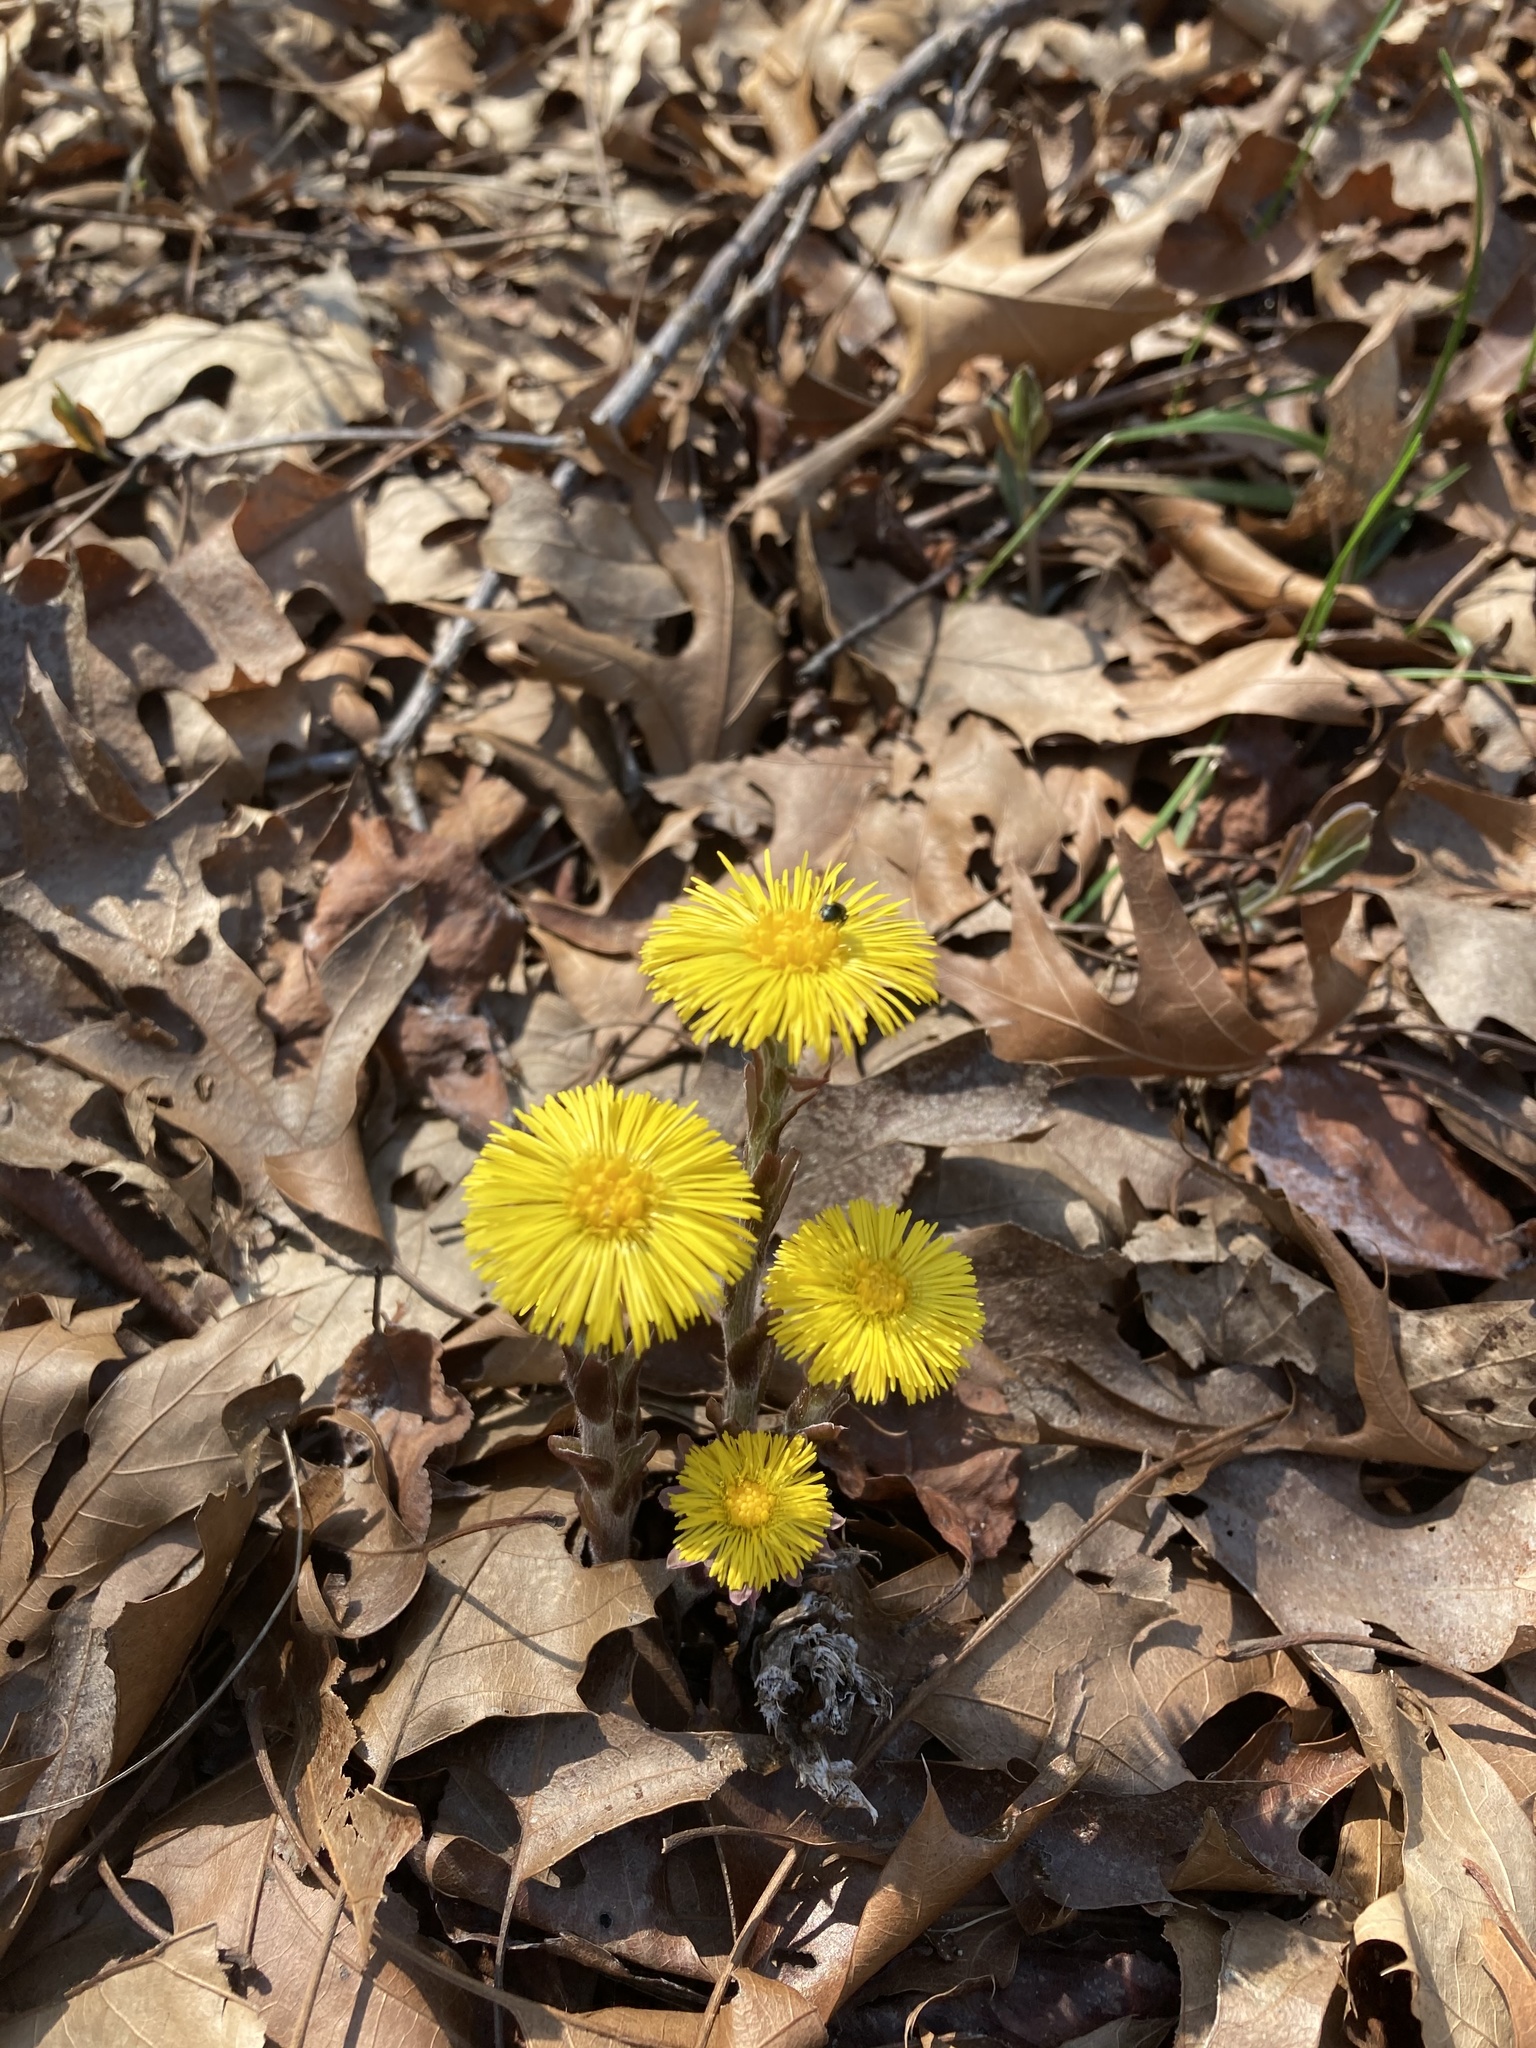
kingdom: Plantae
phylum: Tracheophyta
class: Magnoliopsida
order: Asterales
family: Asteraceae
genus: Tussilago
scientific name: Tussilago farfara
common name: Coltsfoot
